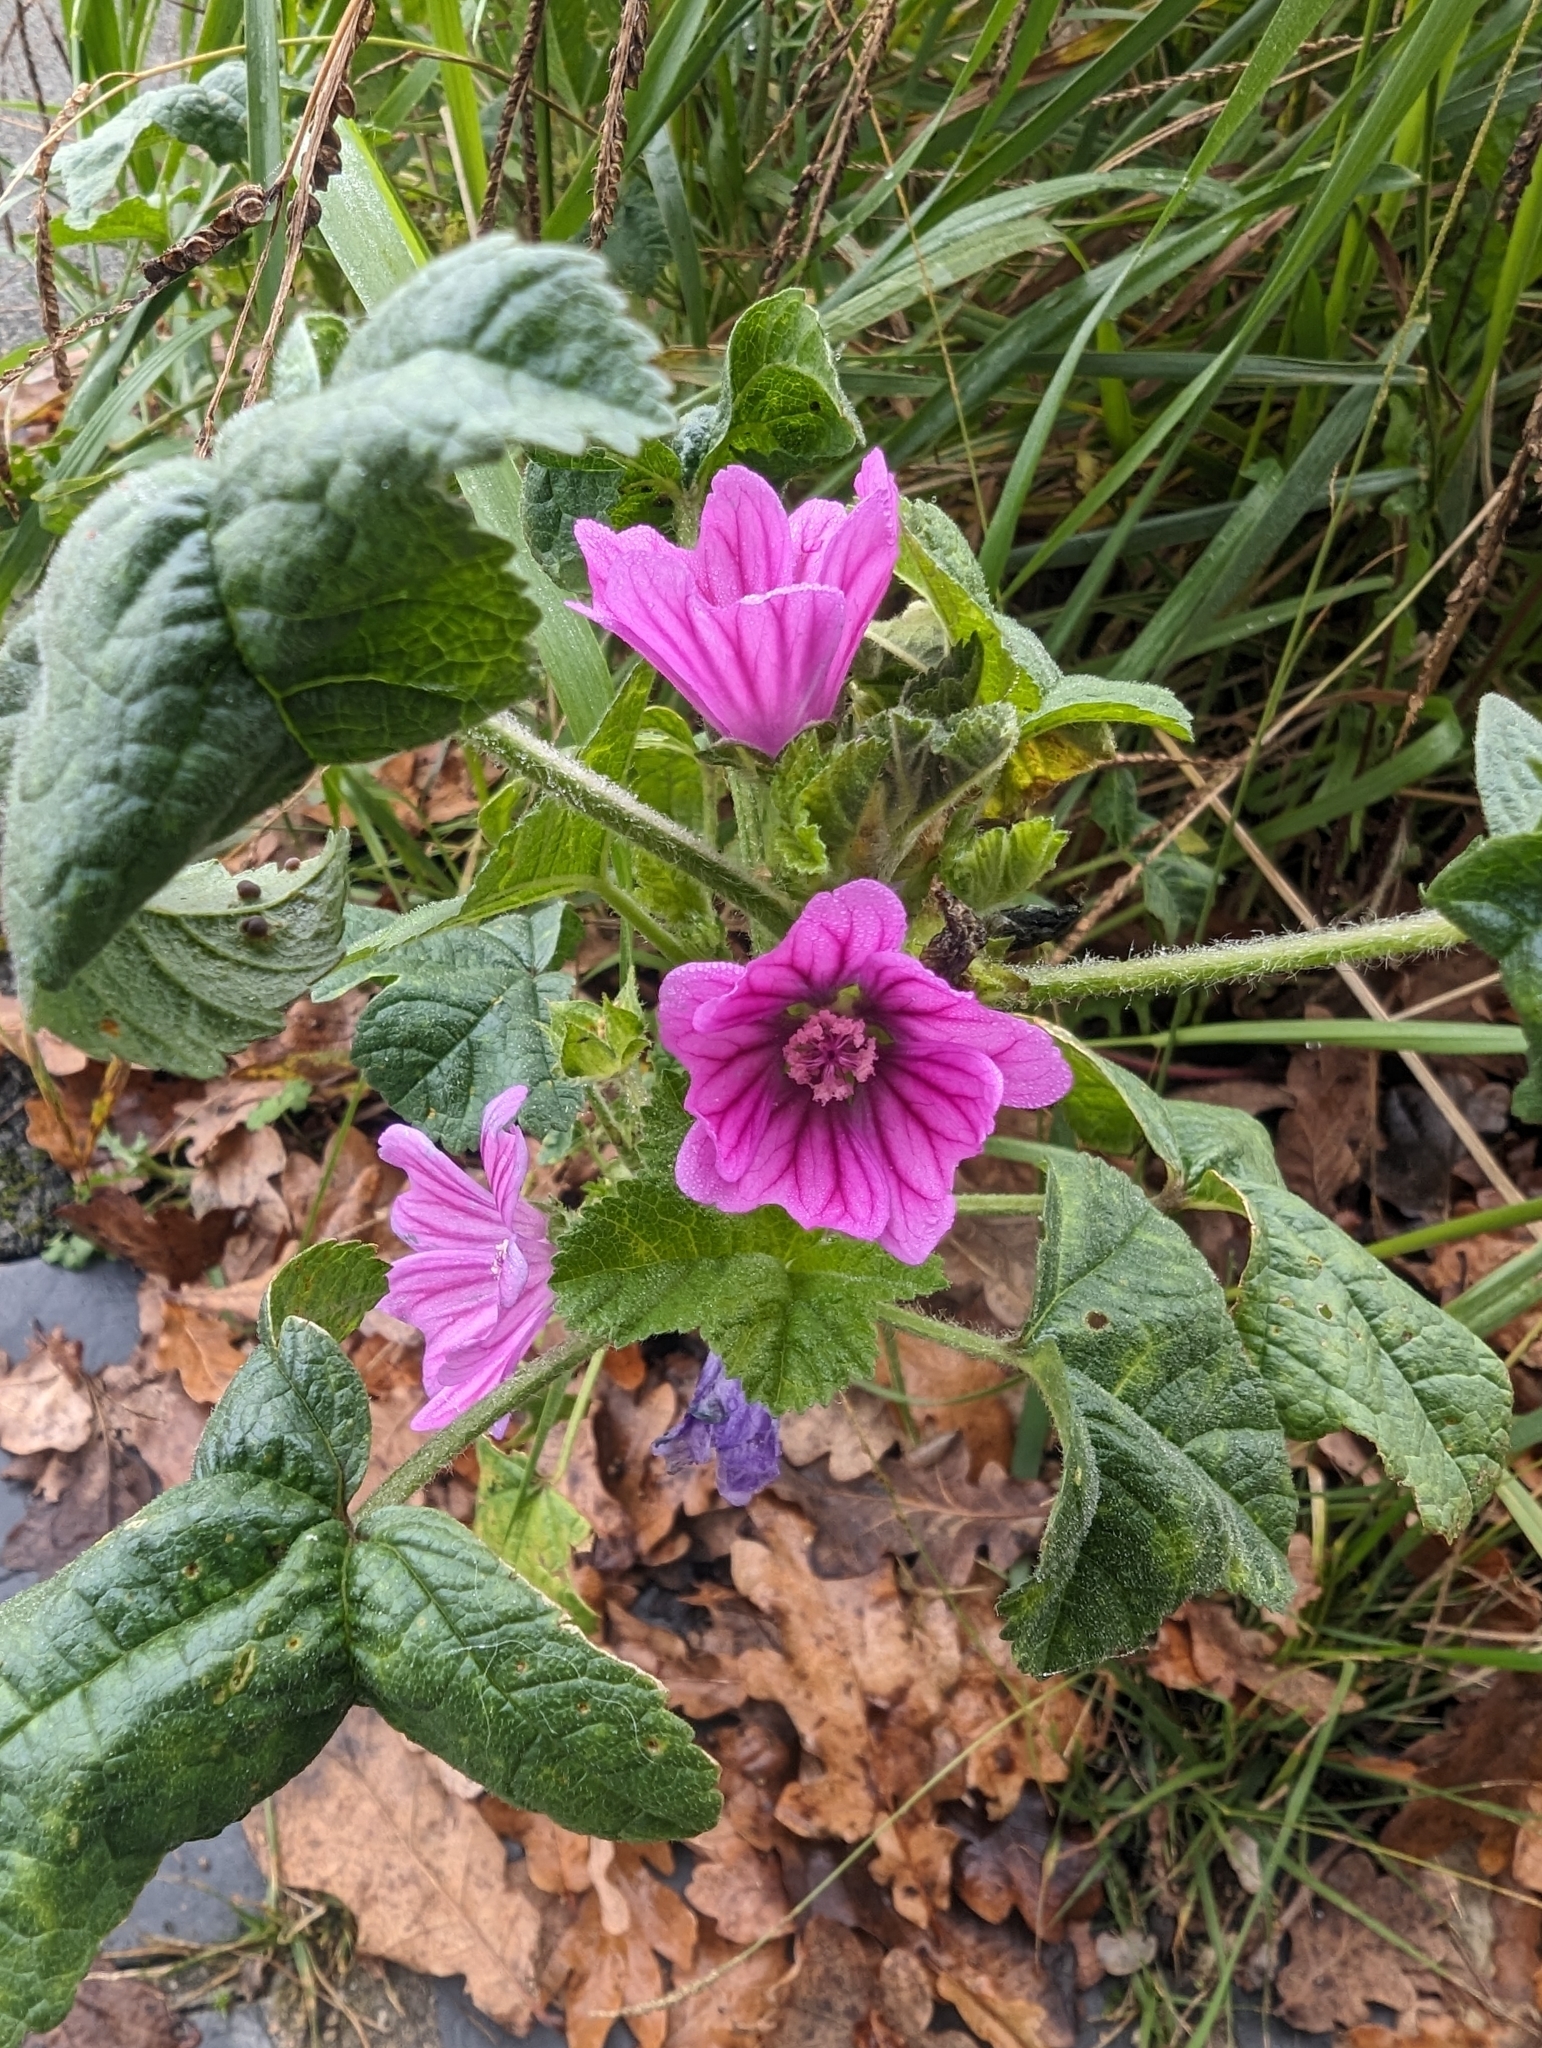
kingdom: Plantae
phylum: Tracheophyta
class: Magnoliopsida
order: Malvales
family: Malvaceae
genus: Malva
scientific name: Malva sylvestris
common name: Common mallow
